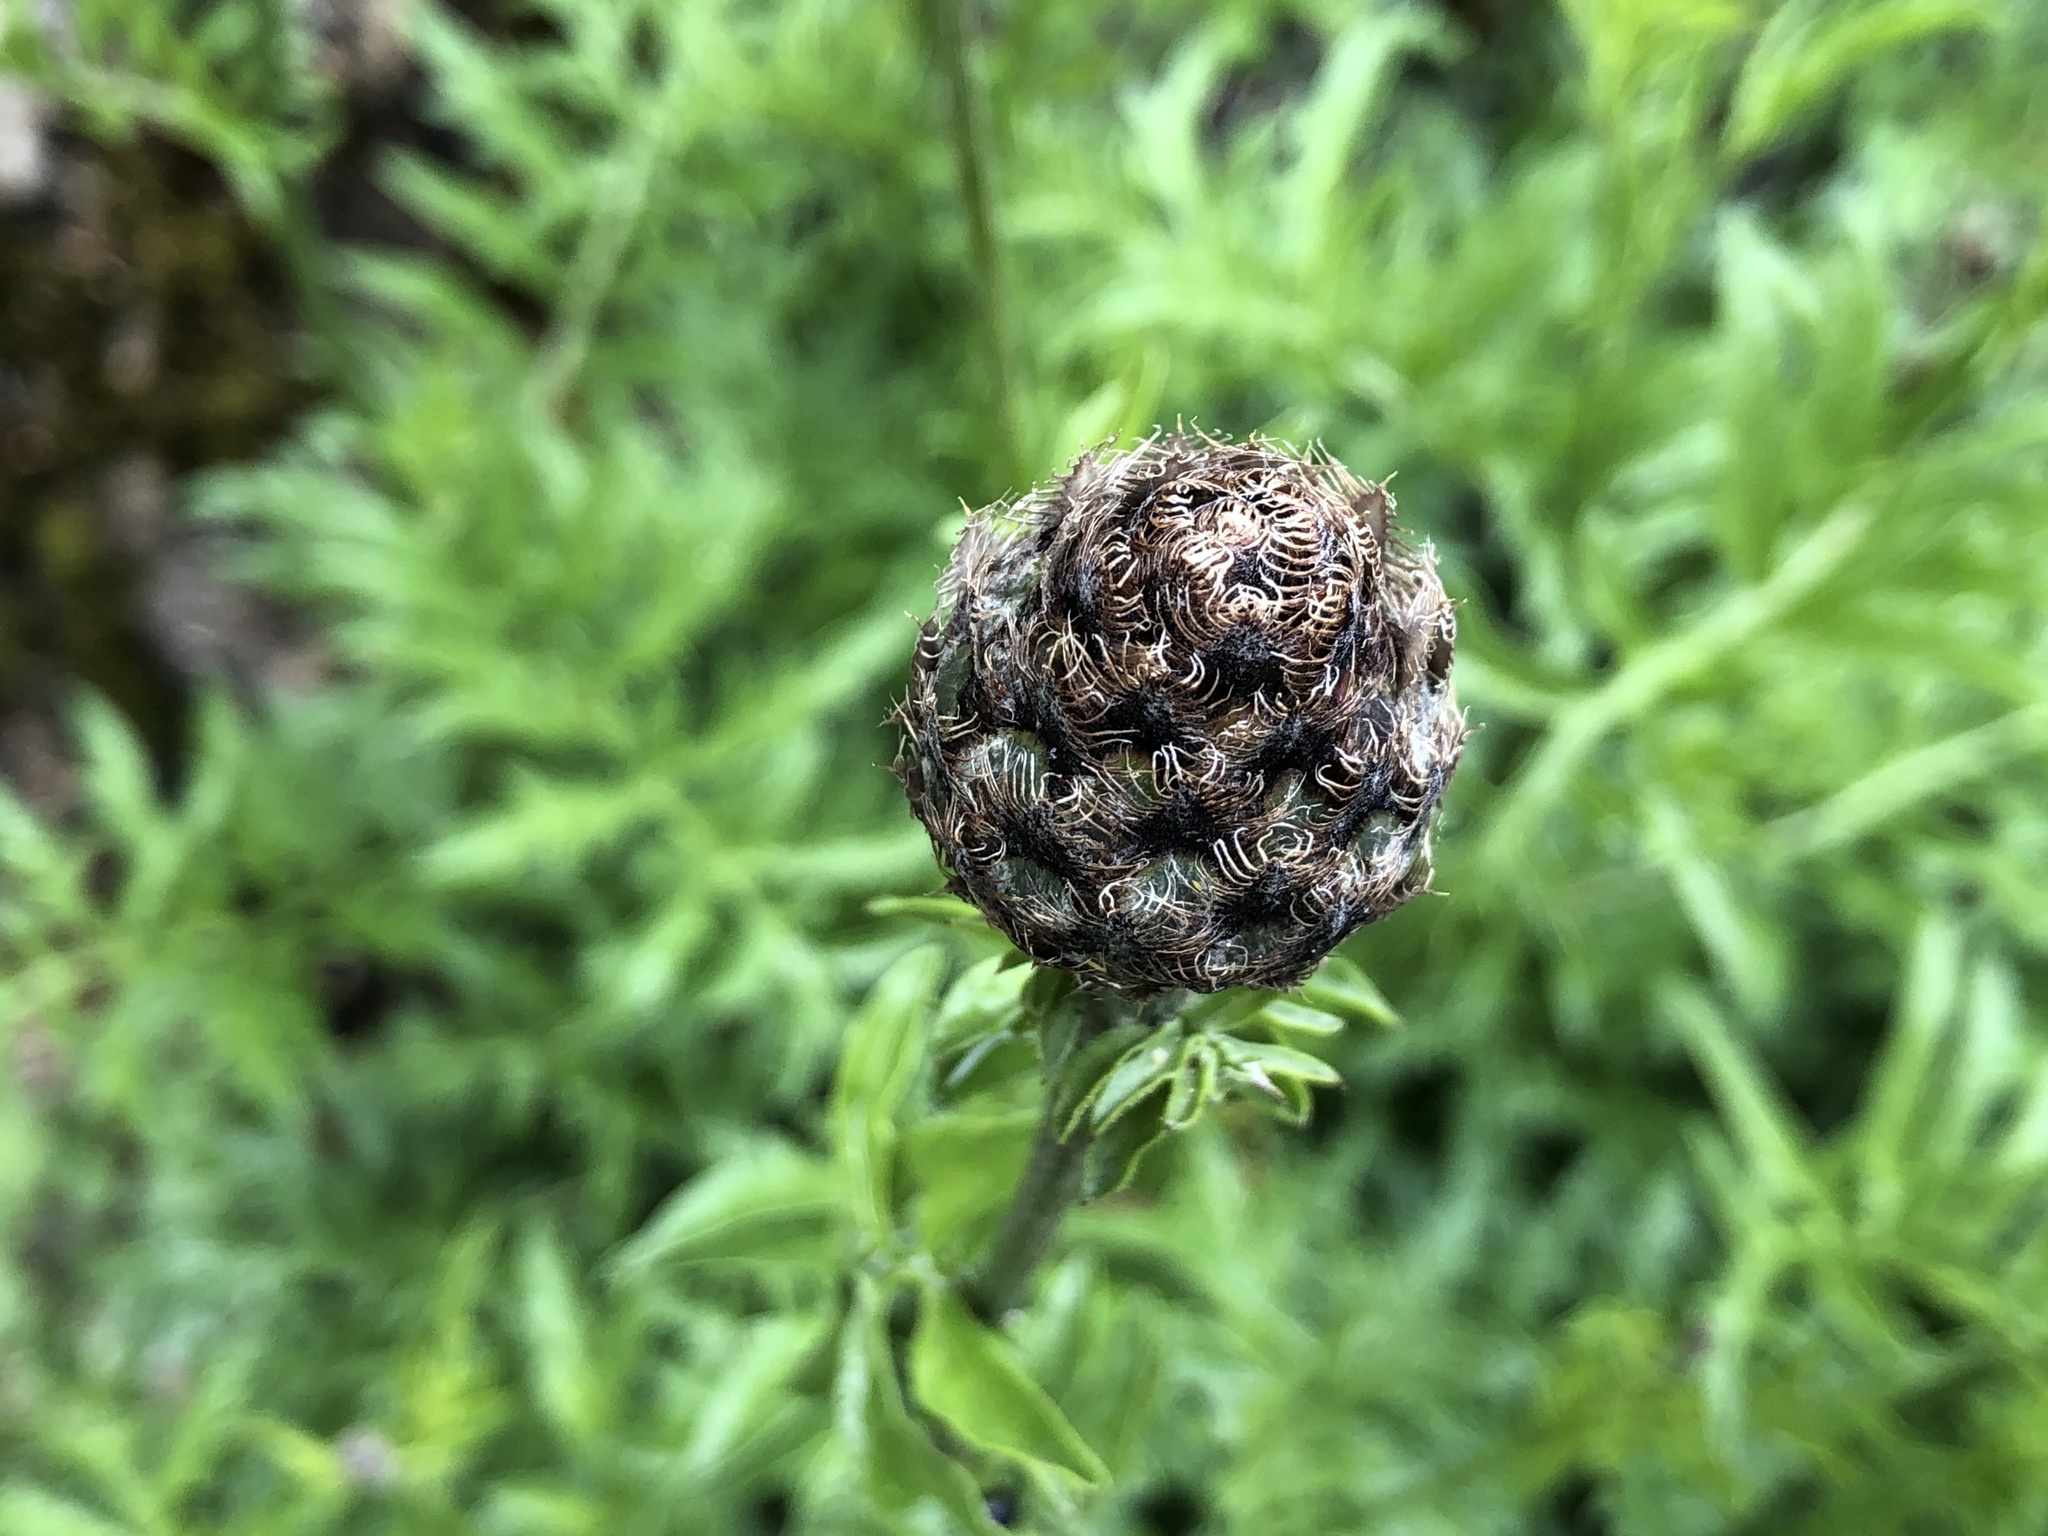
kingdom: Plantae
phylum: Tracheophyta
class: Magnoliopsida
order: Asterales
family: Asteraceae
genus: Centaurea
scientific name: Centaurea scabiosa
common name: Greater knapweed
